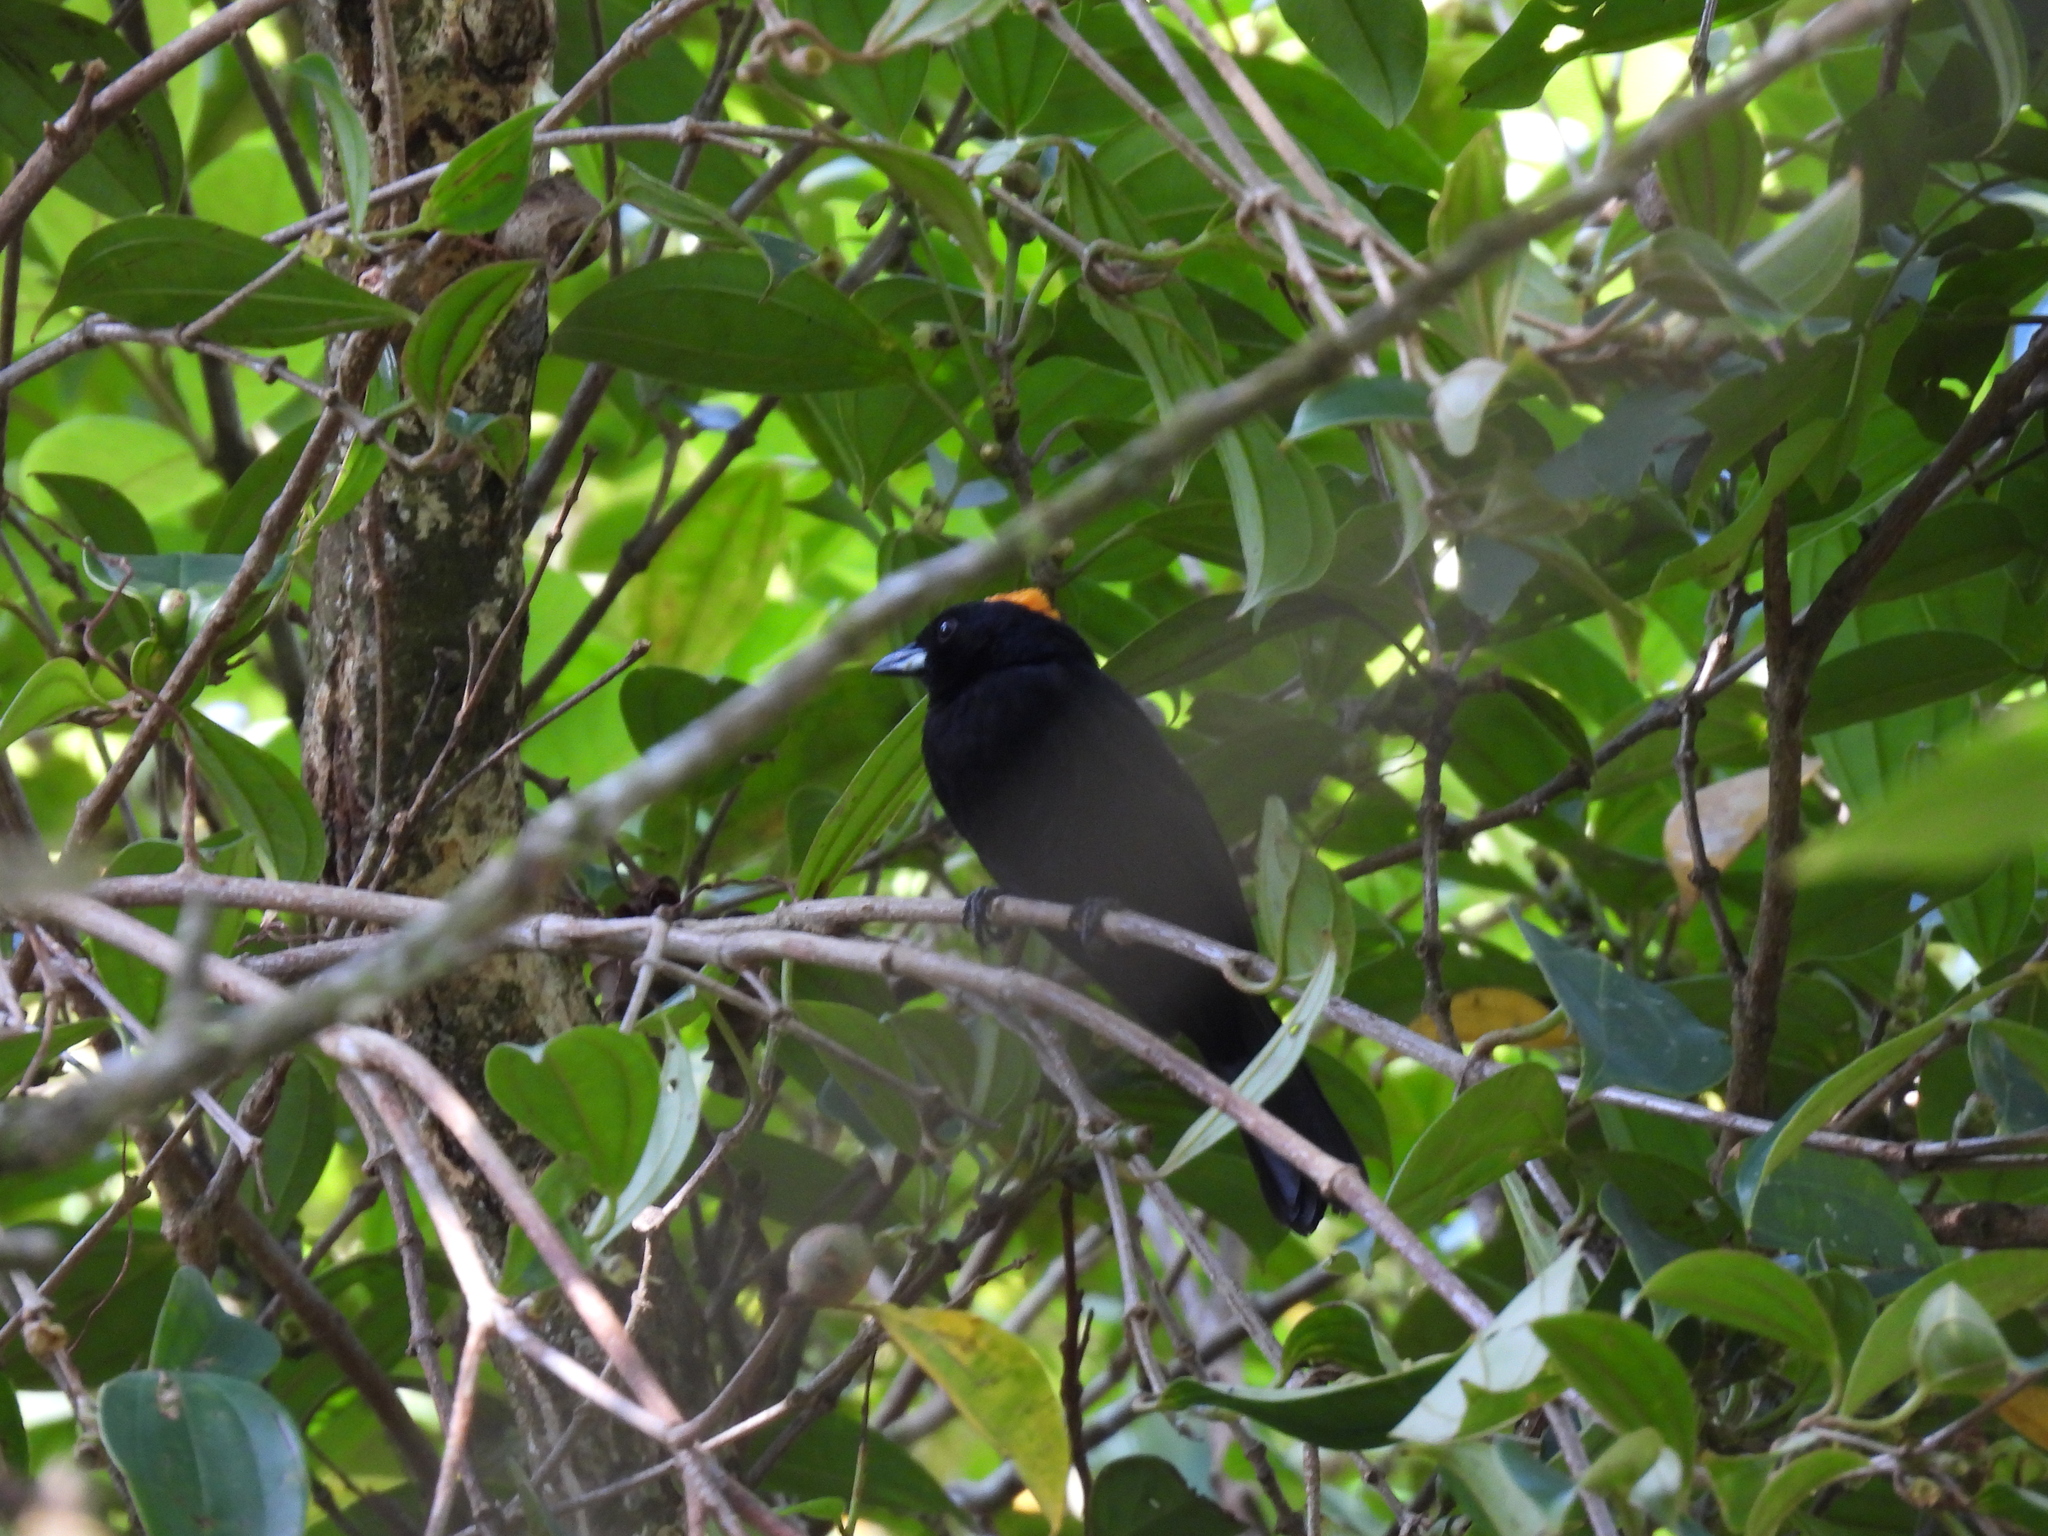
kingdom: Animalia
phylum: Chordata
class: Aves
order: Passeriformes
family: Thraupidae
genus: Tachyphonus
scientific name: Tachyphonus delatrii
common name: Tawny-crested tanager
